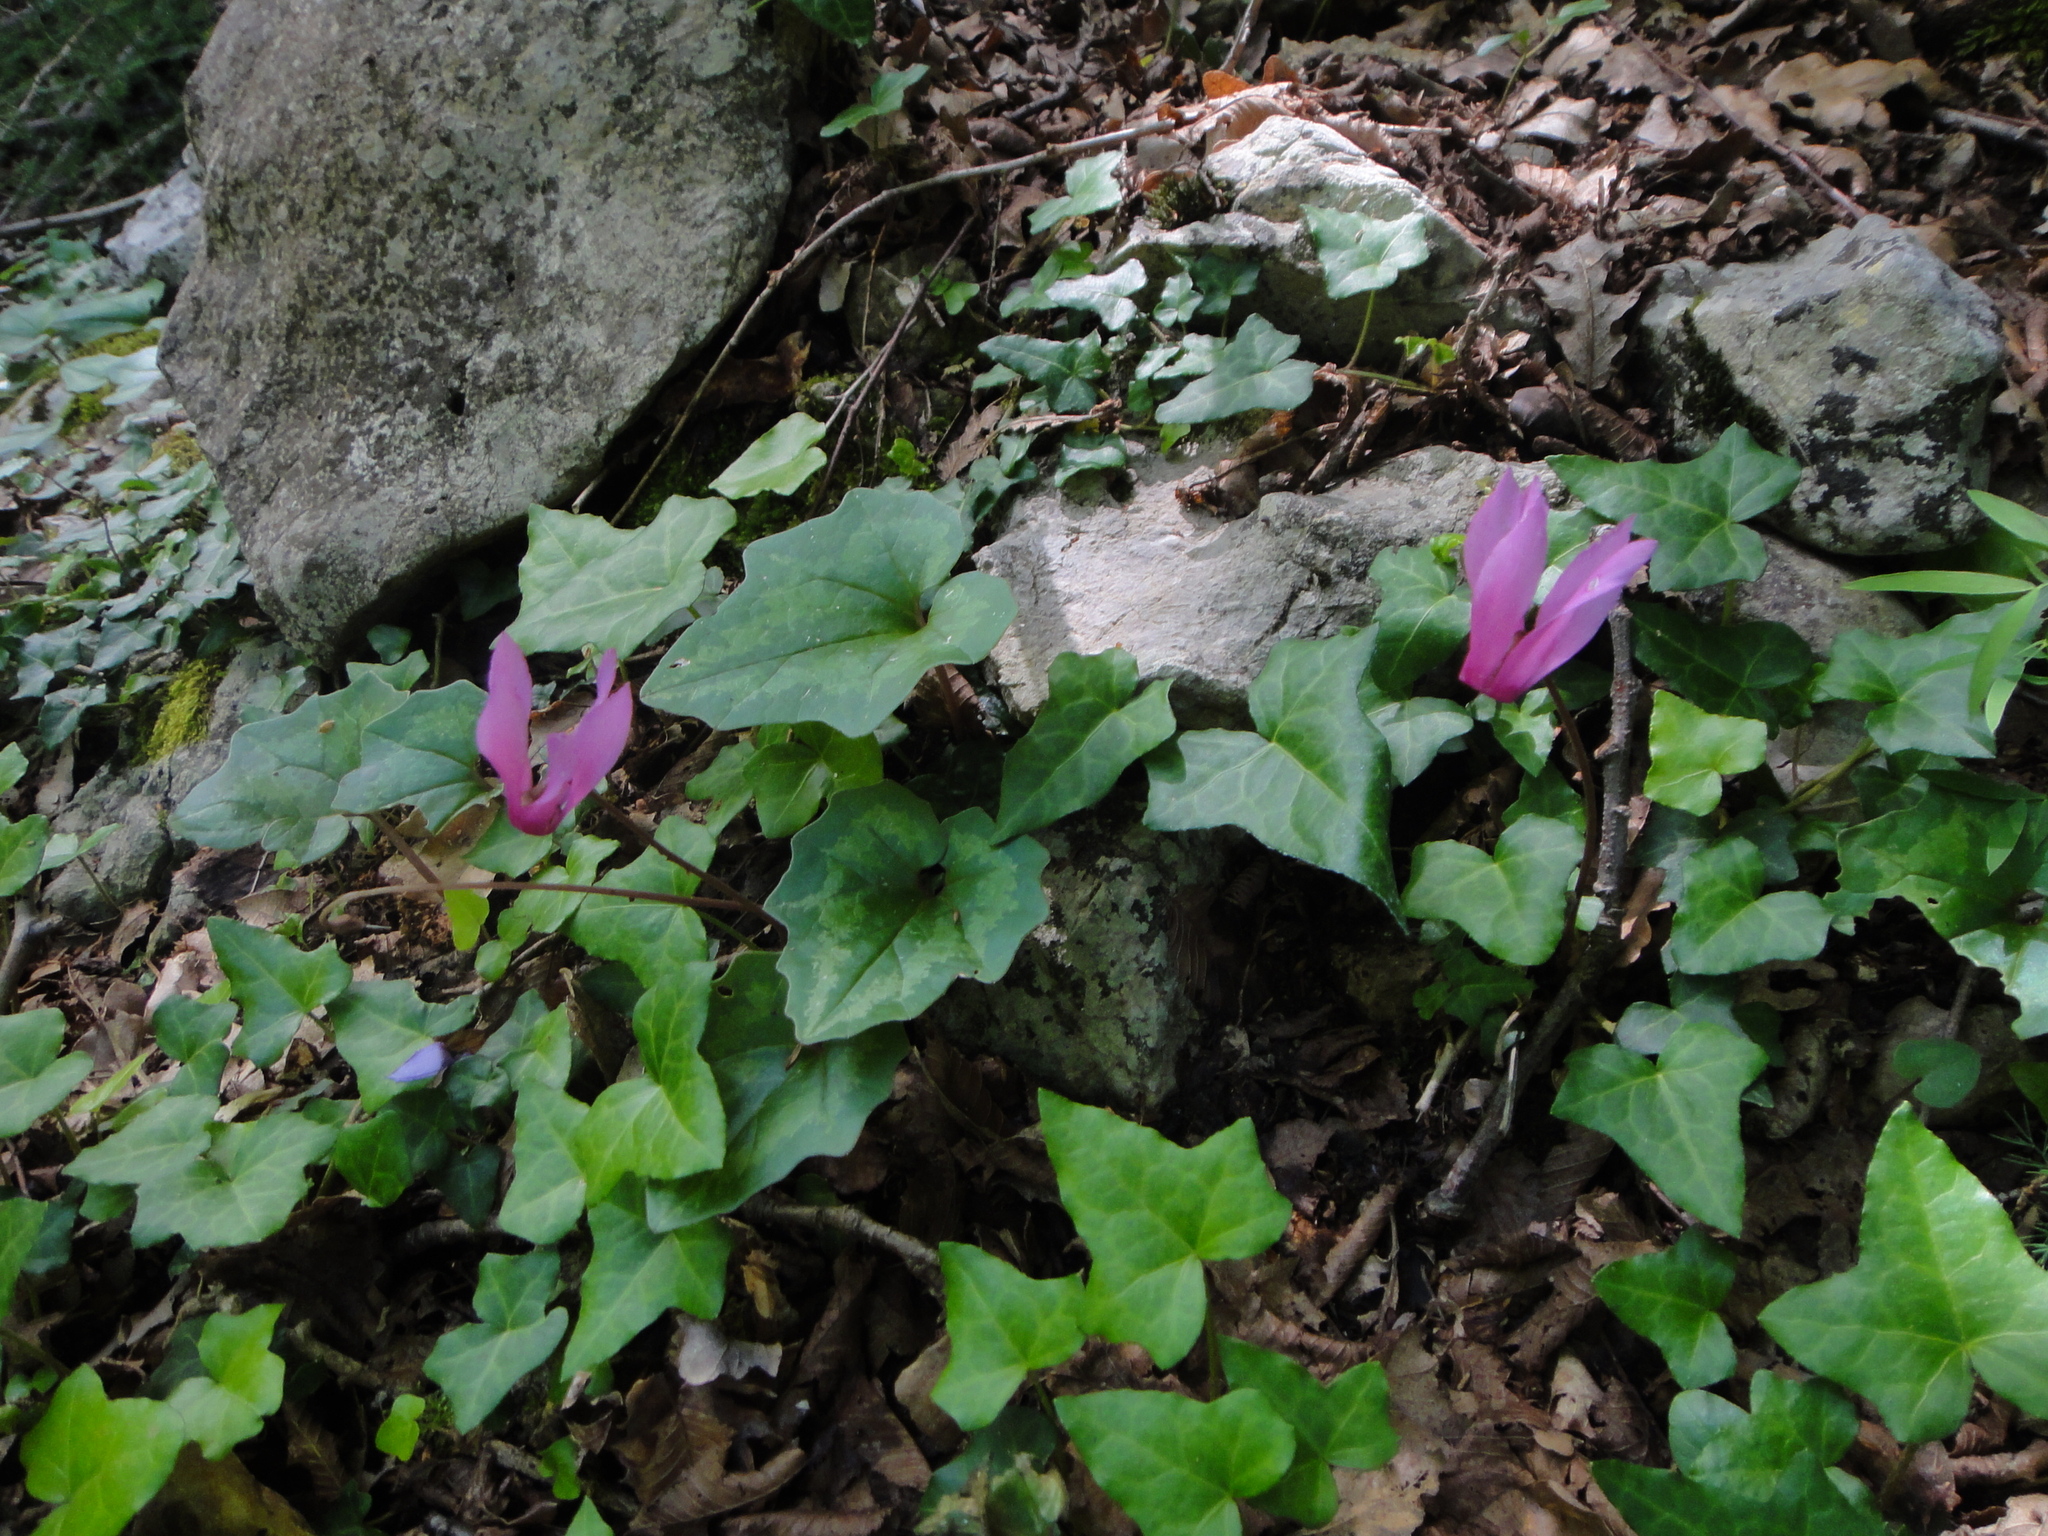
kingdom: Plantae
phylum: Tracheophyta
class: Magnoliopsida
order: Ericales
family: Primulaceae
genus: Cyclamen
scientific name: Cyclamen repandum
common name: Spring sowbread
